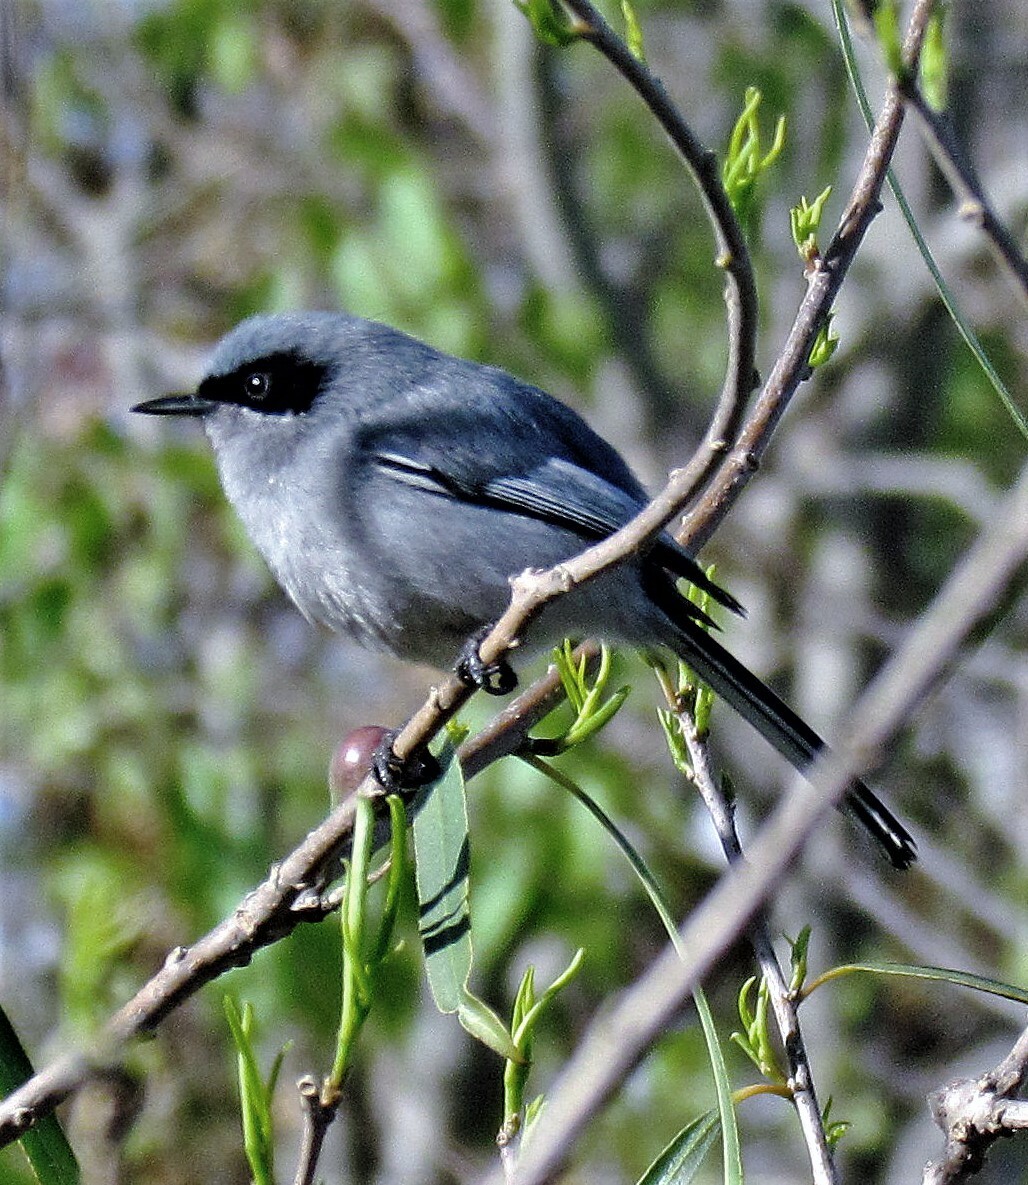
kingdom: Animalia
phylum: Chordata
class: Aves
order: Passeriformes
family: Polioptilidae
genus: Polioptila
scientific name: Polioptila dumicola
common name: Masked gnatcatcher
